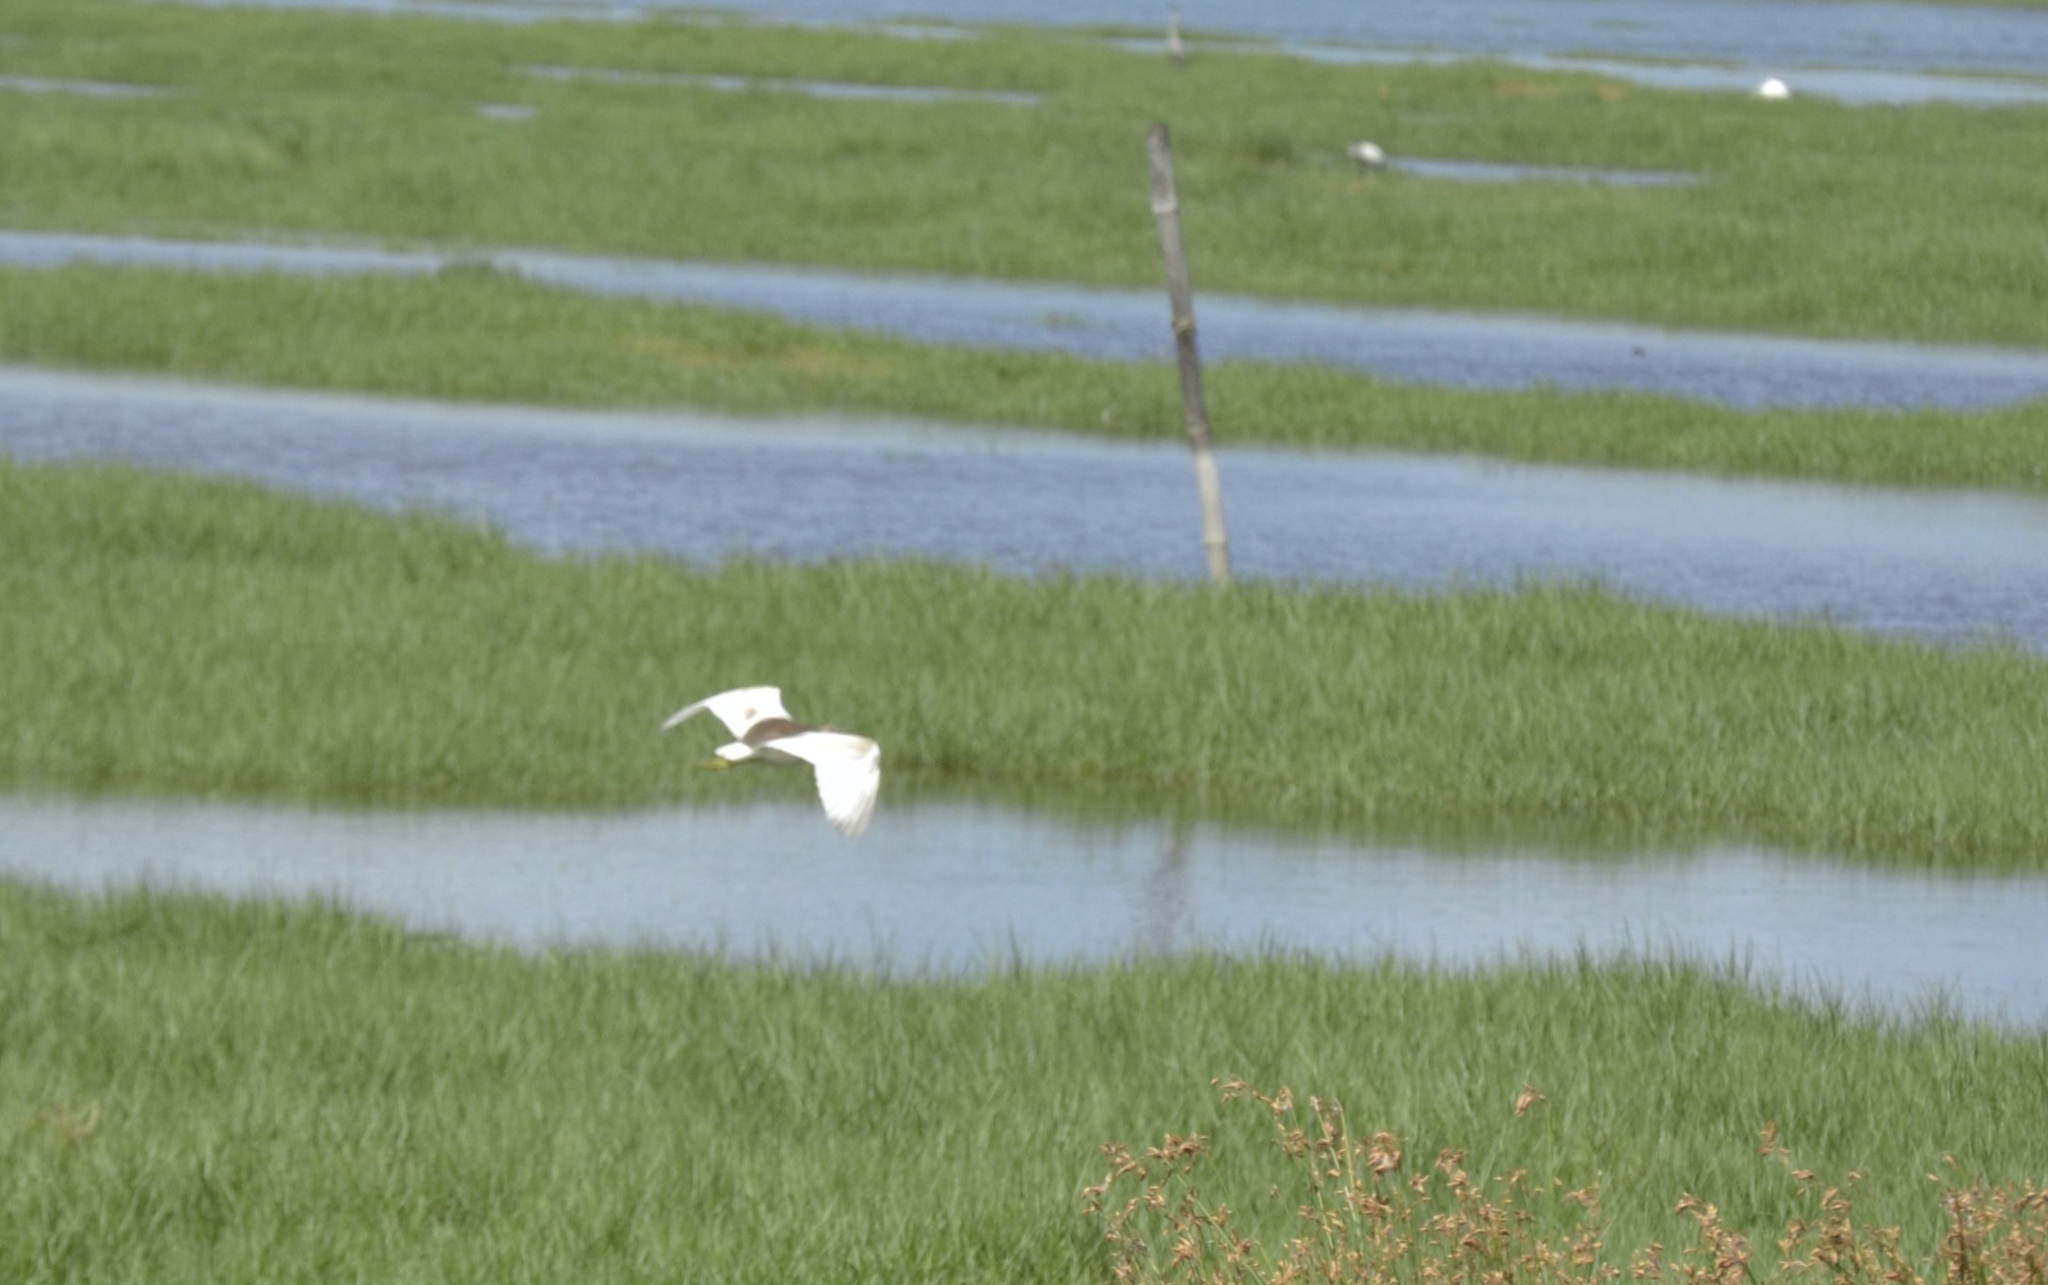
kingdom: Animalia
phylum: Chordata
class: Aves
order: Pelecaniformes
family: Ardeidae
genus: Ardeola
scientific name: Ardeola grayii
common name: Indian pond heron
